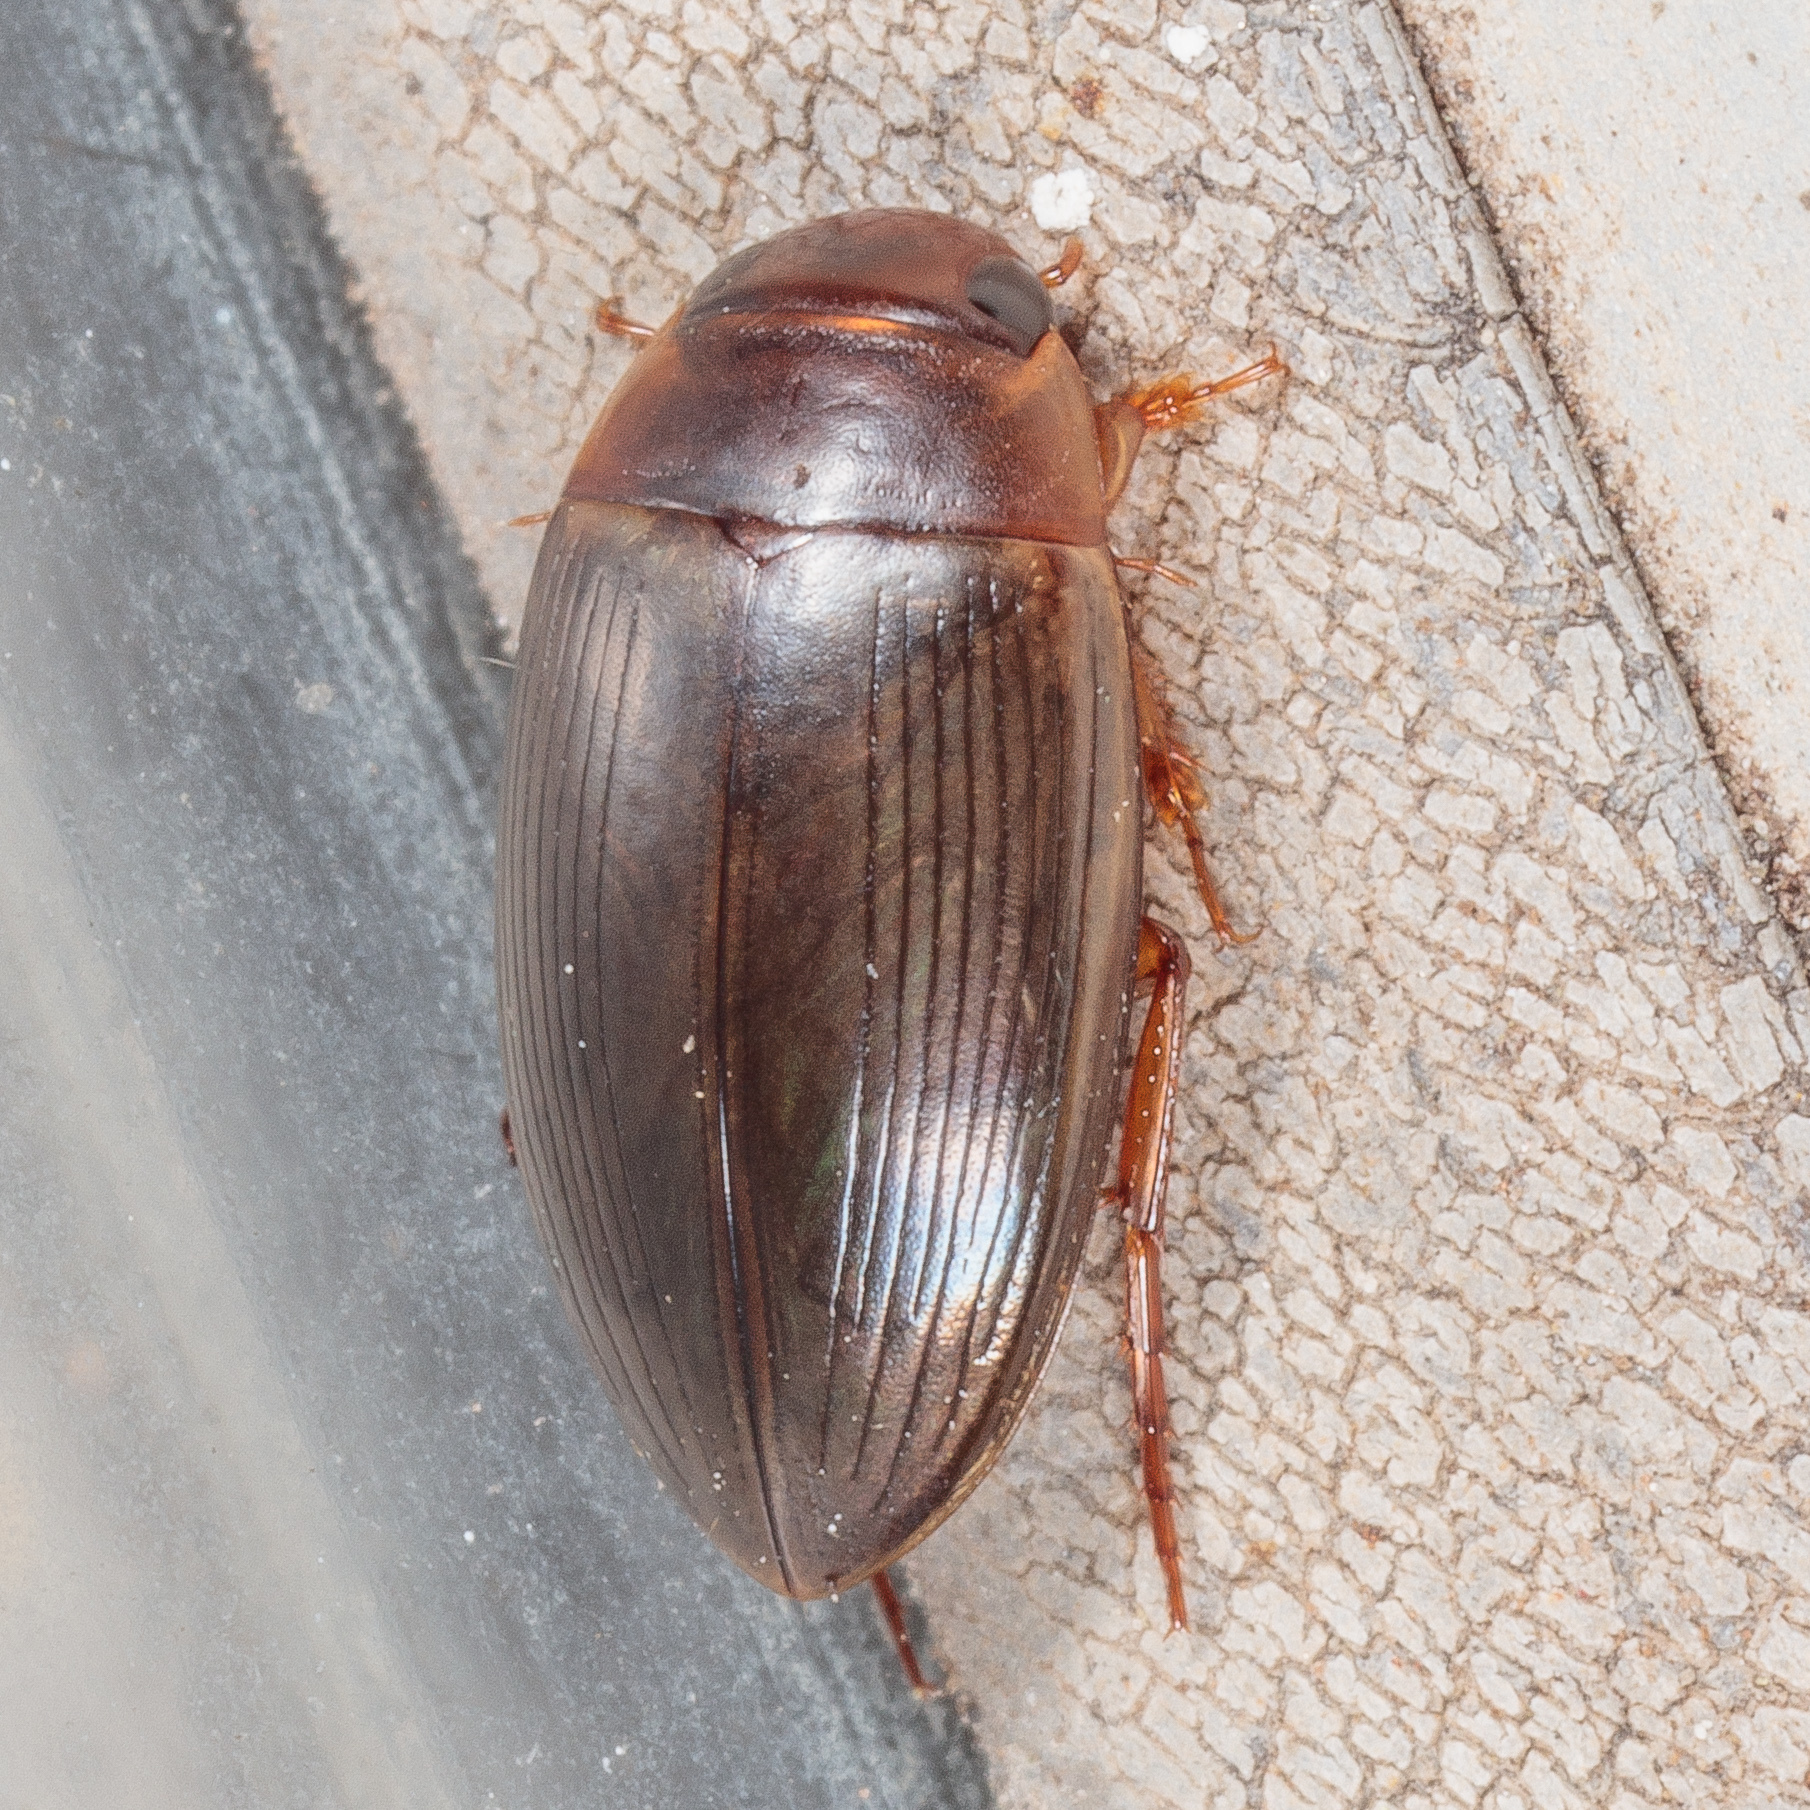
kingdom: Animalia
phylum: Arthropoda
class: Insecta
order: Coleoptera
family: Dytiscidae
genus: Copelatus
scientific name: Copelatus chevrolati
